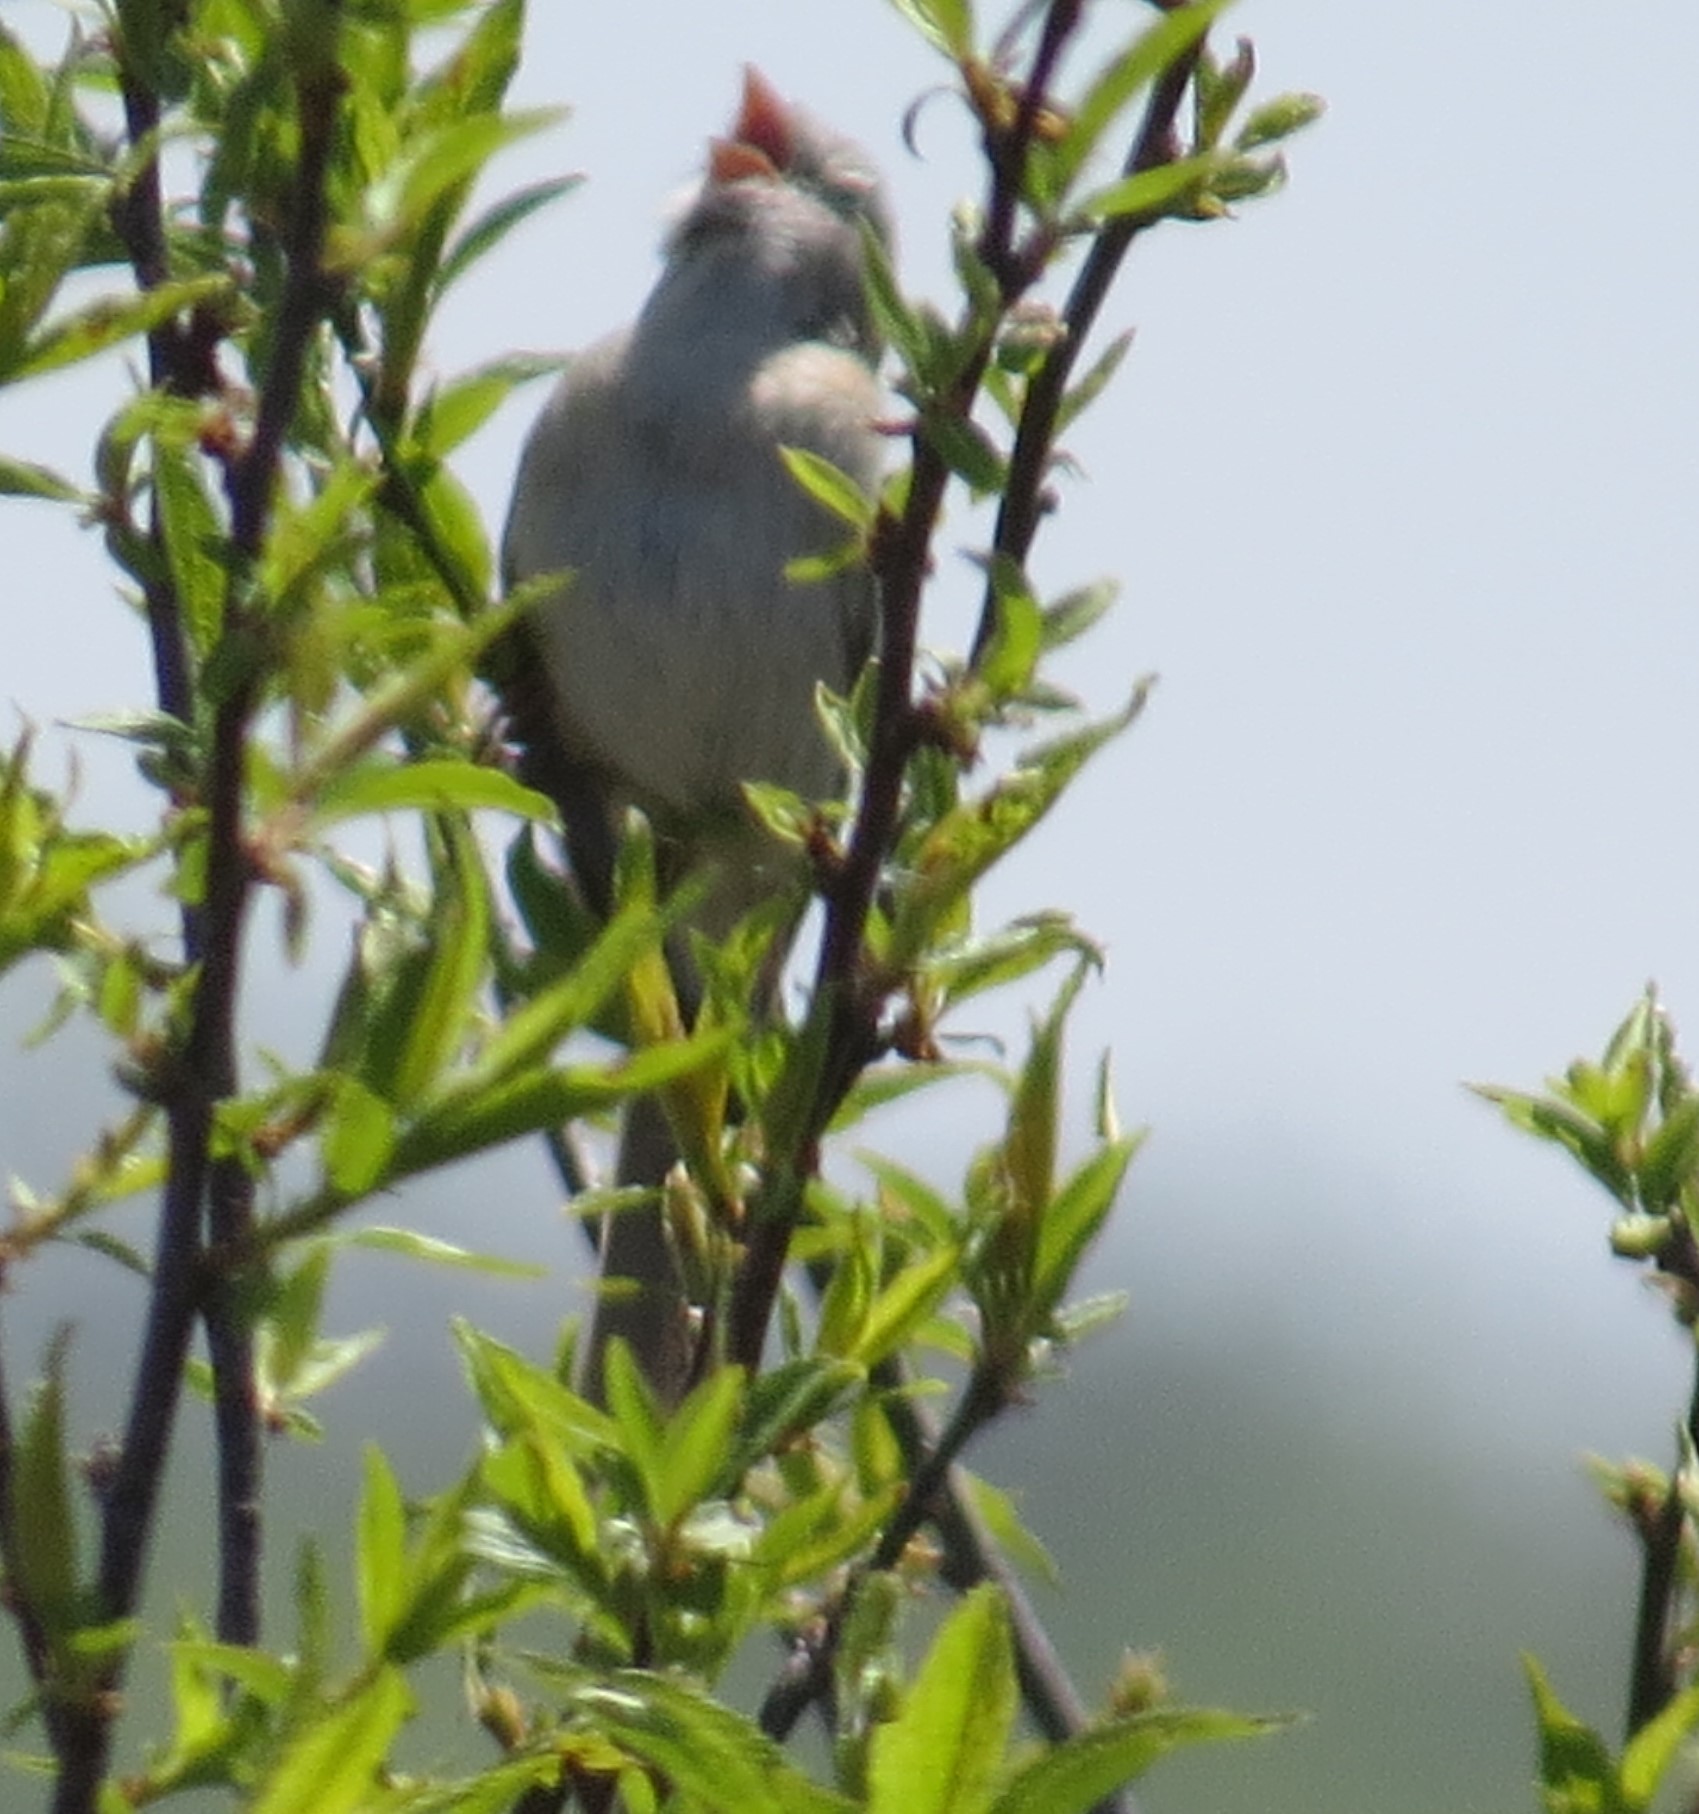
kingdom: Animalia
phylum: Chordata
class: Aves
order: Passeriformes
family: Passerellidae
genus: Spizella
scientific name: Spizella pusilla
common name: Field sparrow
